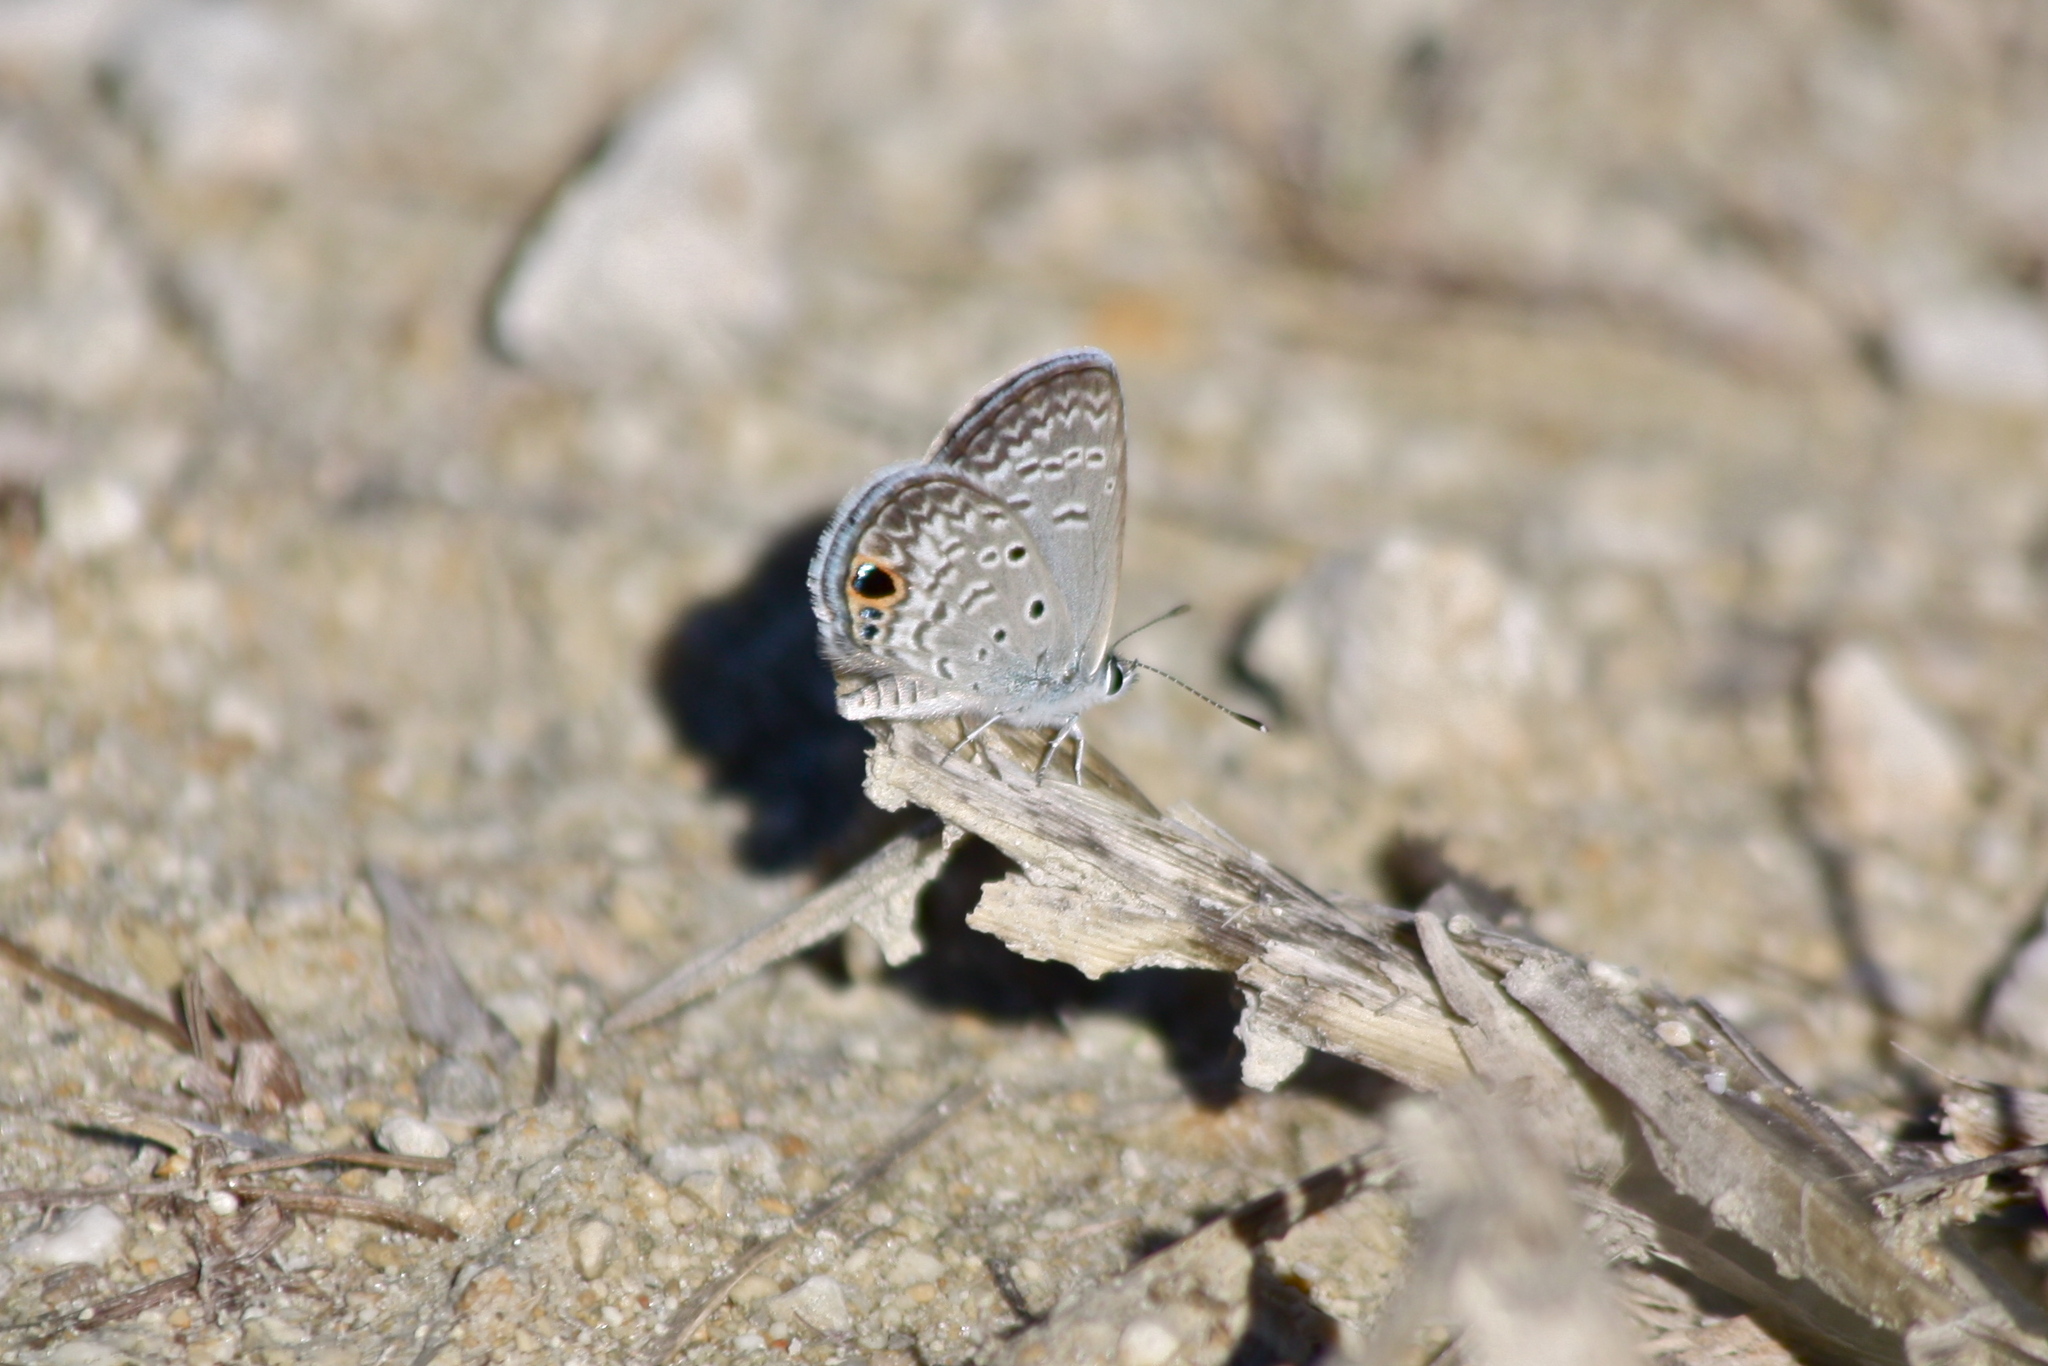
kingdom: Animalia
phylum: Arthropoda
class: Insecta
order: Lepidoptera
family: Lycaenidae
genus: Hemiargus
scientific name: Hemiargus ceraunus
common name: Ceraunus blue
